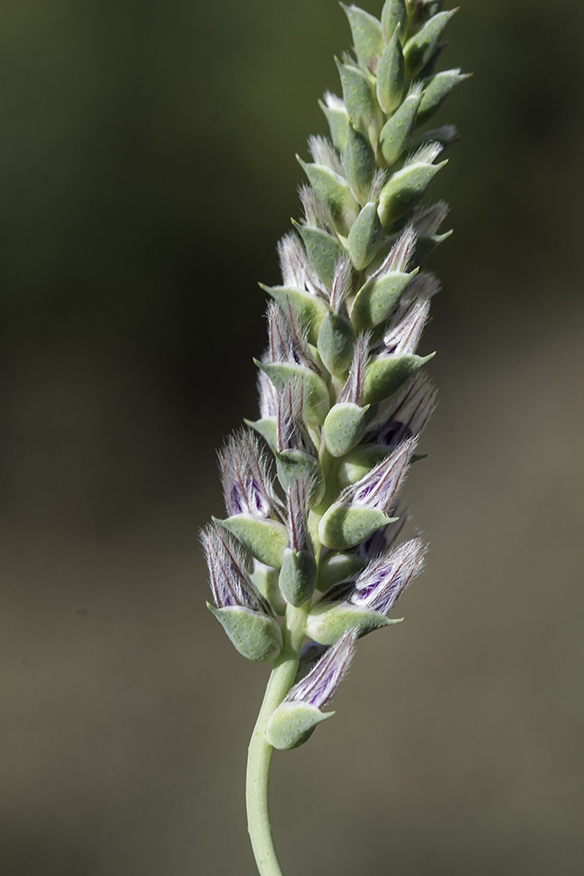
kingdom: Plantae
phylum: Tracheophyta
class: Magnoliopsida
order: Fabales
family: Fabaceae
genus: Dalea
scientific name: Dalea pogonathera
